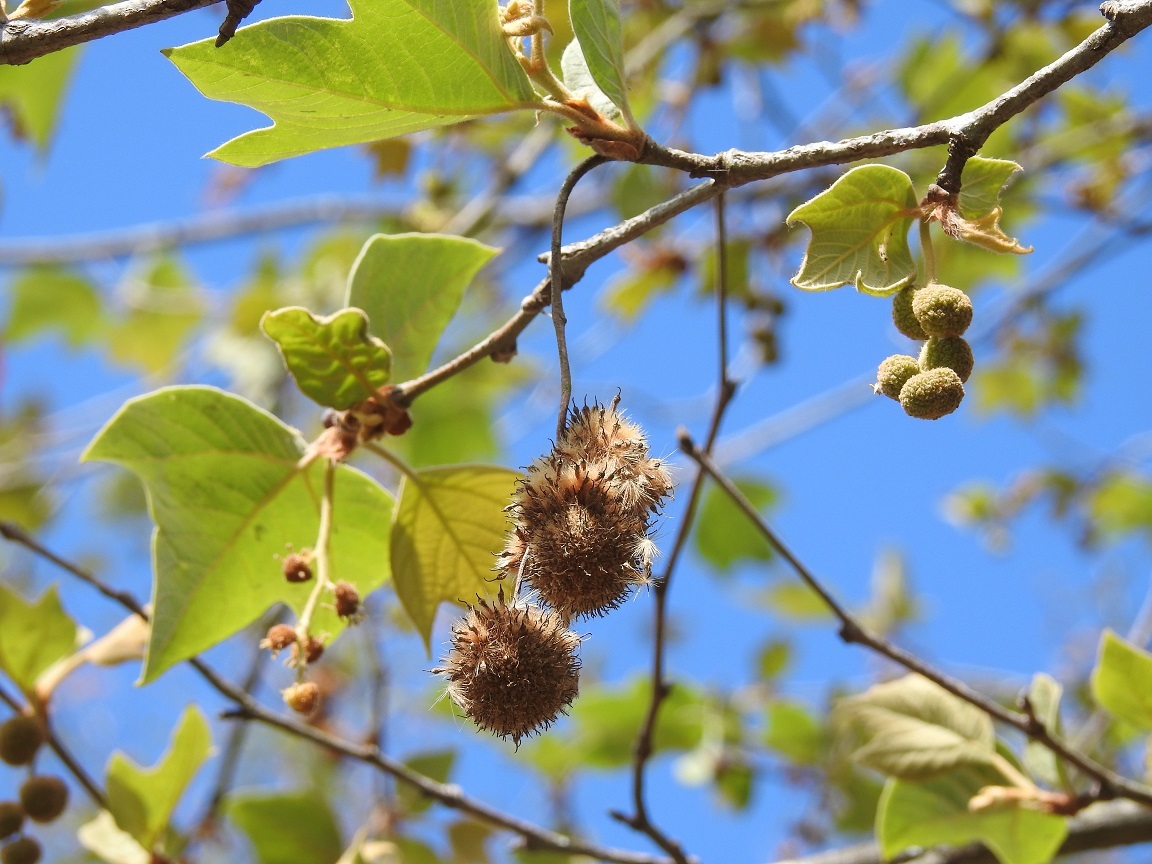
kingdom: Plantae
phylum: Tracheophyta
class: Magnoliopsida
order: Proteales
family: Platanaceae
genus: Platanus
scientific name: Platanus mexicana
